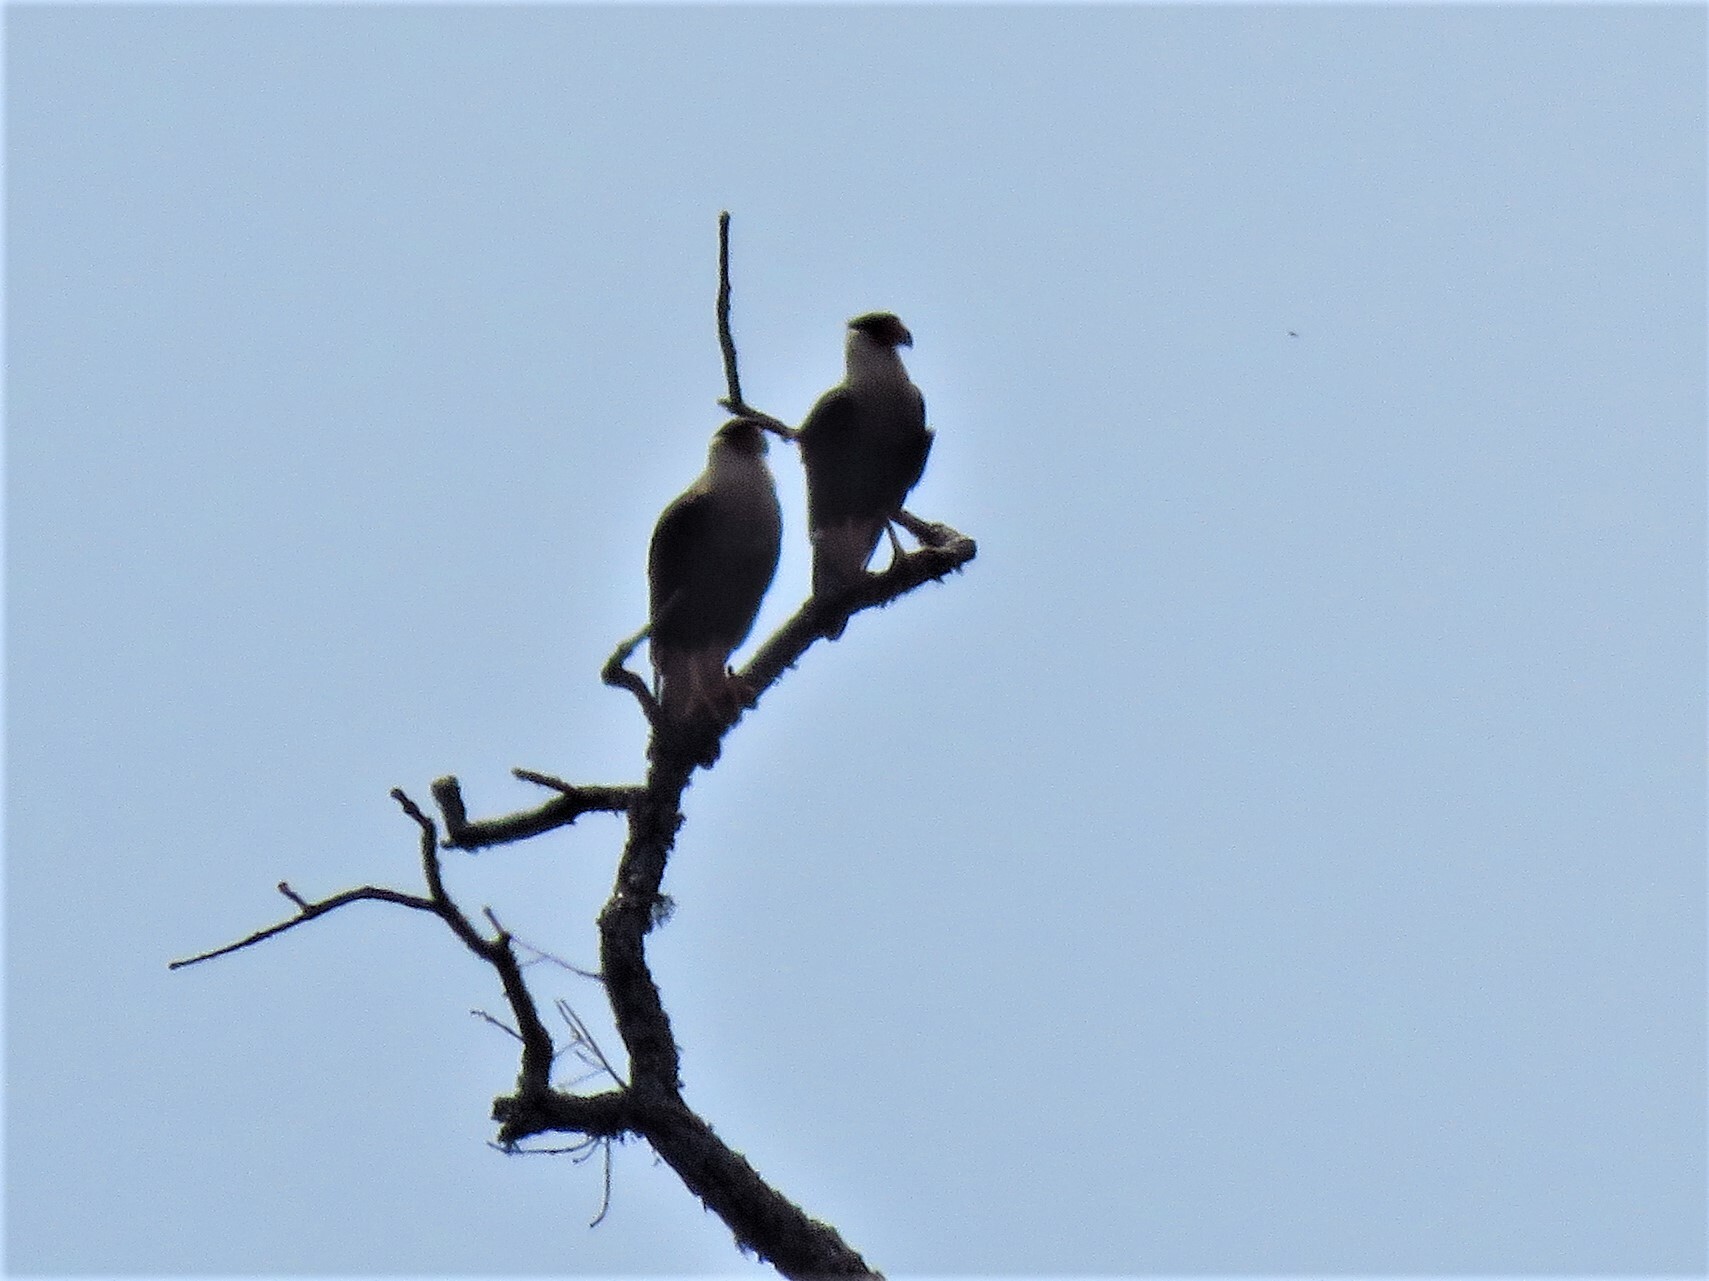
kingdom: Animalia
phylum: Chordata
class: Aves
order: Falconiformes
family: Falconidae
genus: Caracara
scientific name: Caracara plancus
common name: Southern caracara
